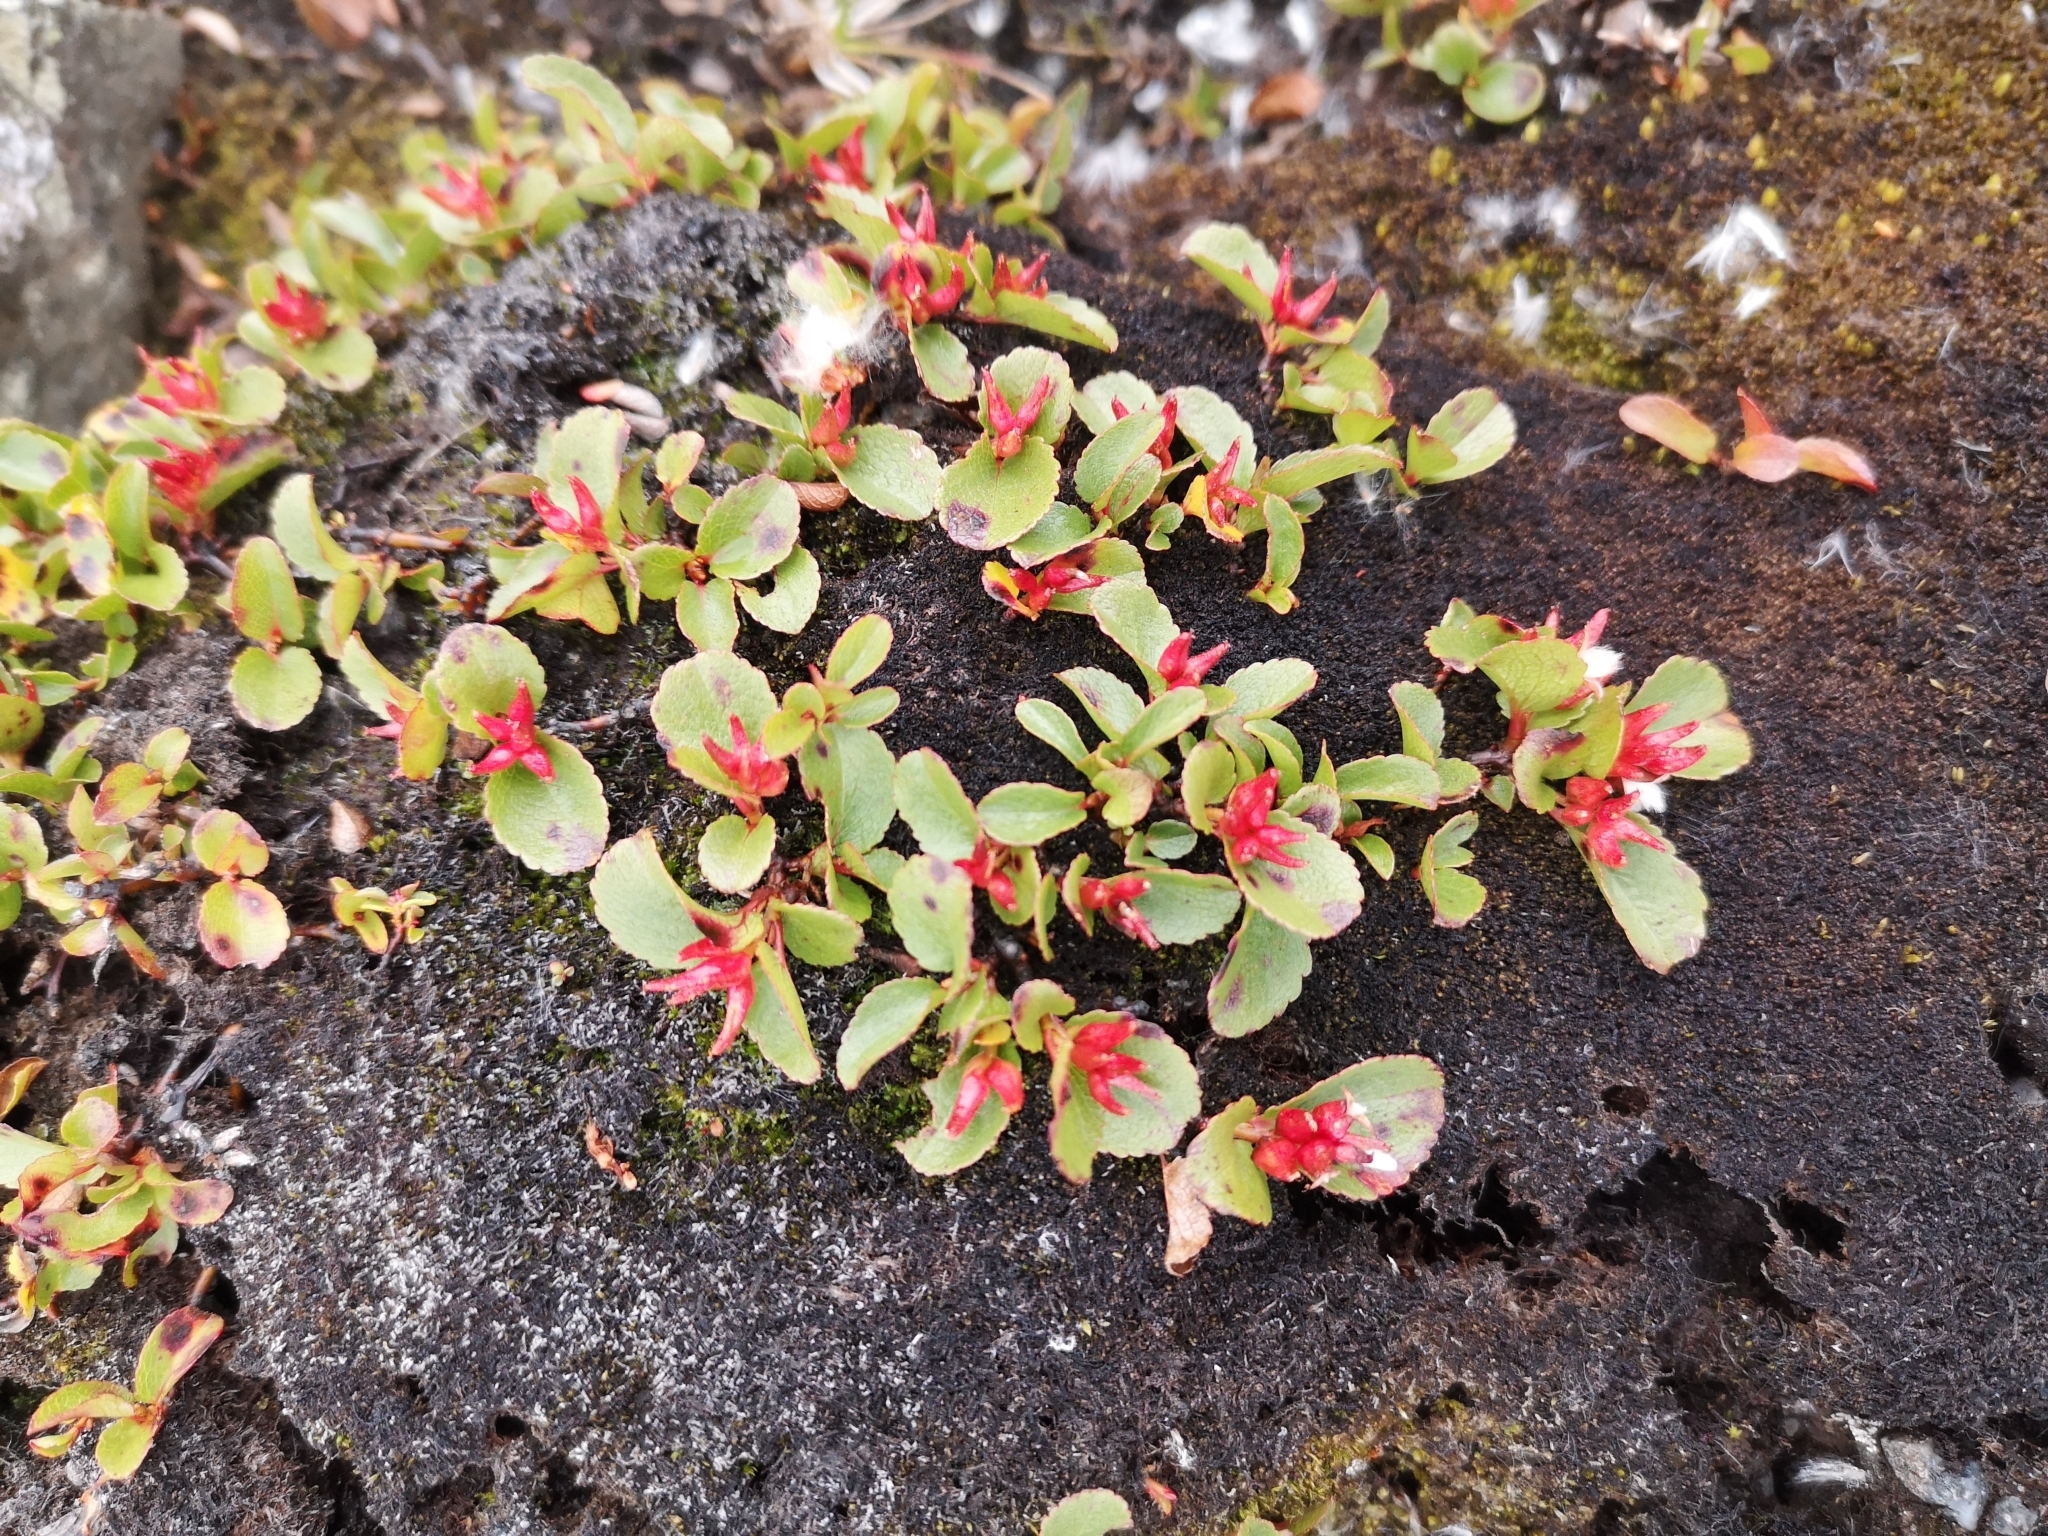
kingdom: Plantae
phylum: Tracheophyta
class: Magnoliopsida
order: Malpighiales
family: Salicaceae
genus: Salix
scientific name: Salix herbacea
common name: Dwarf willow
